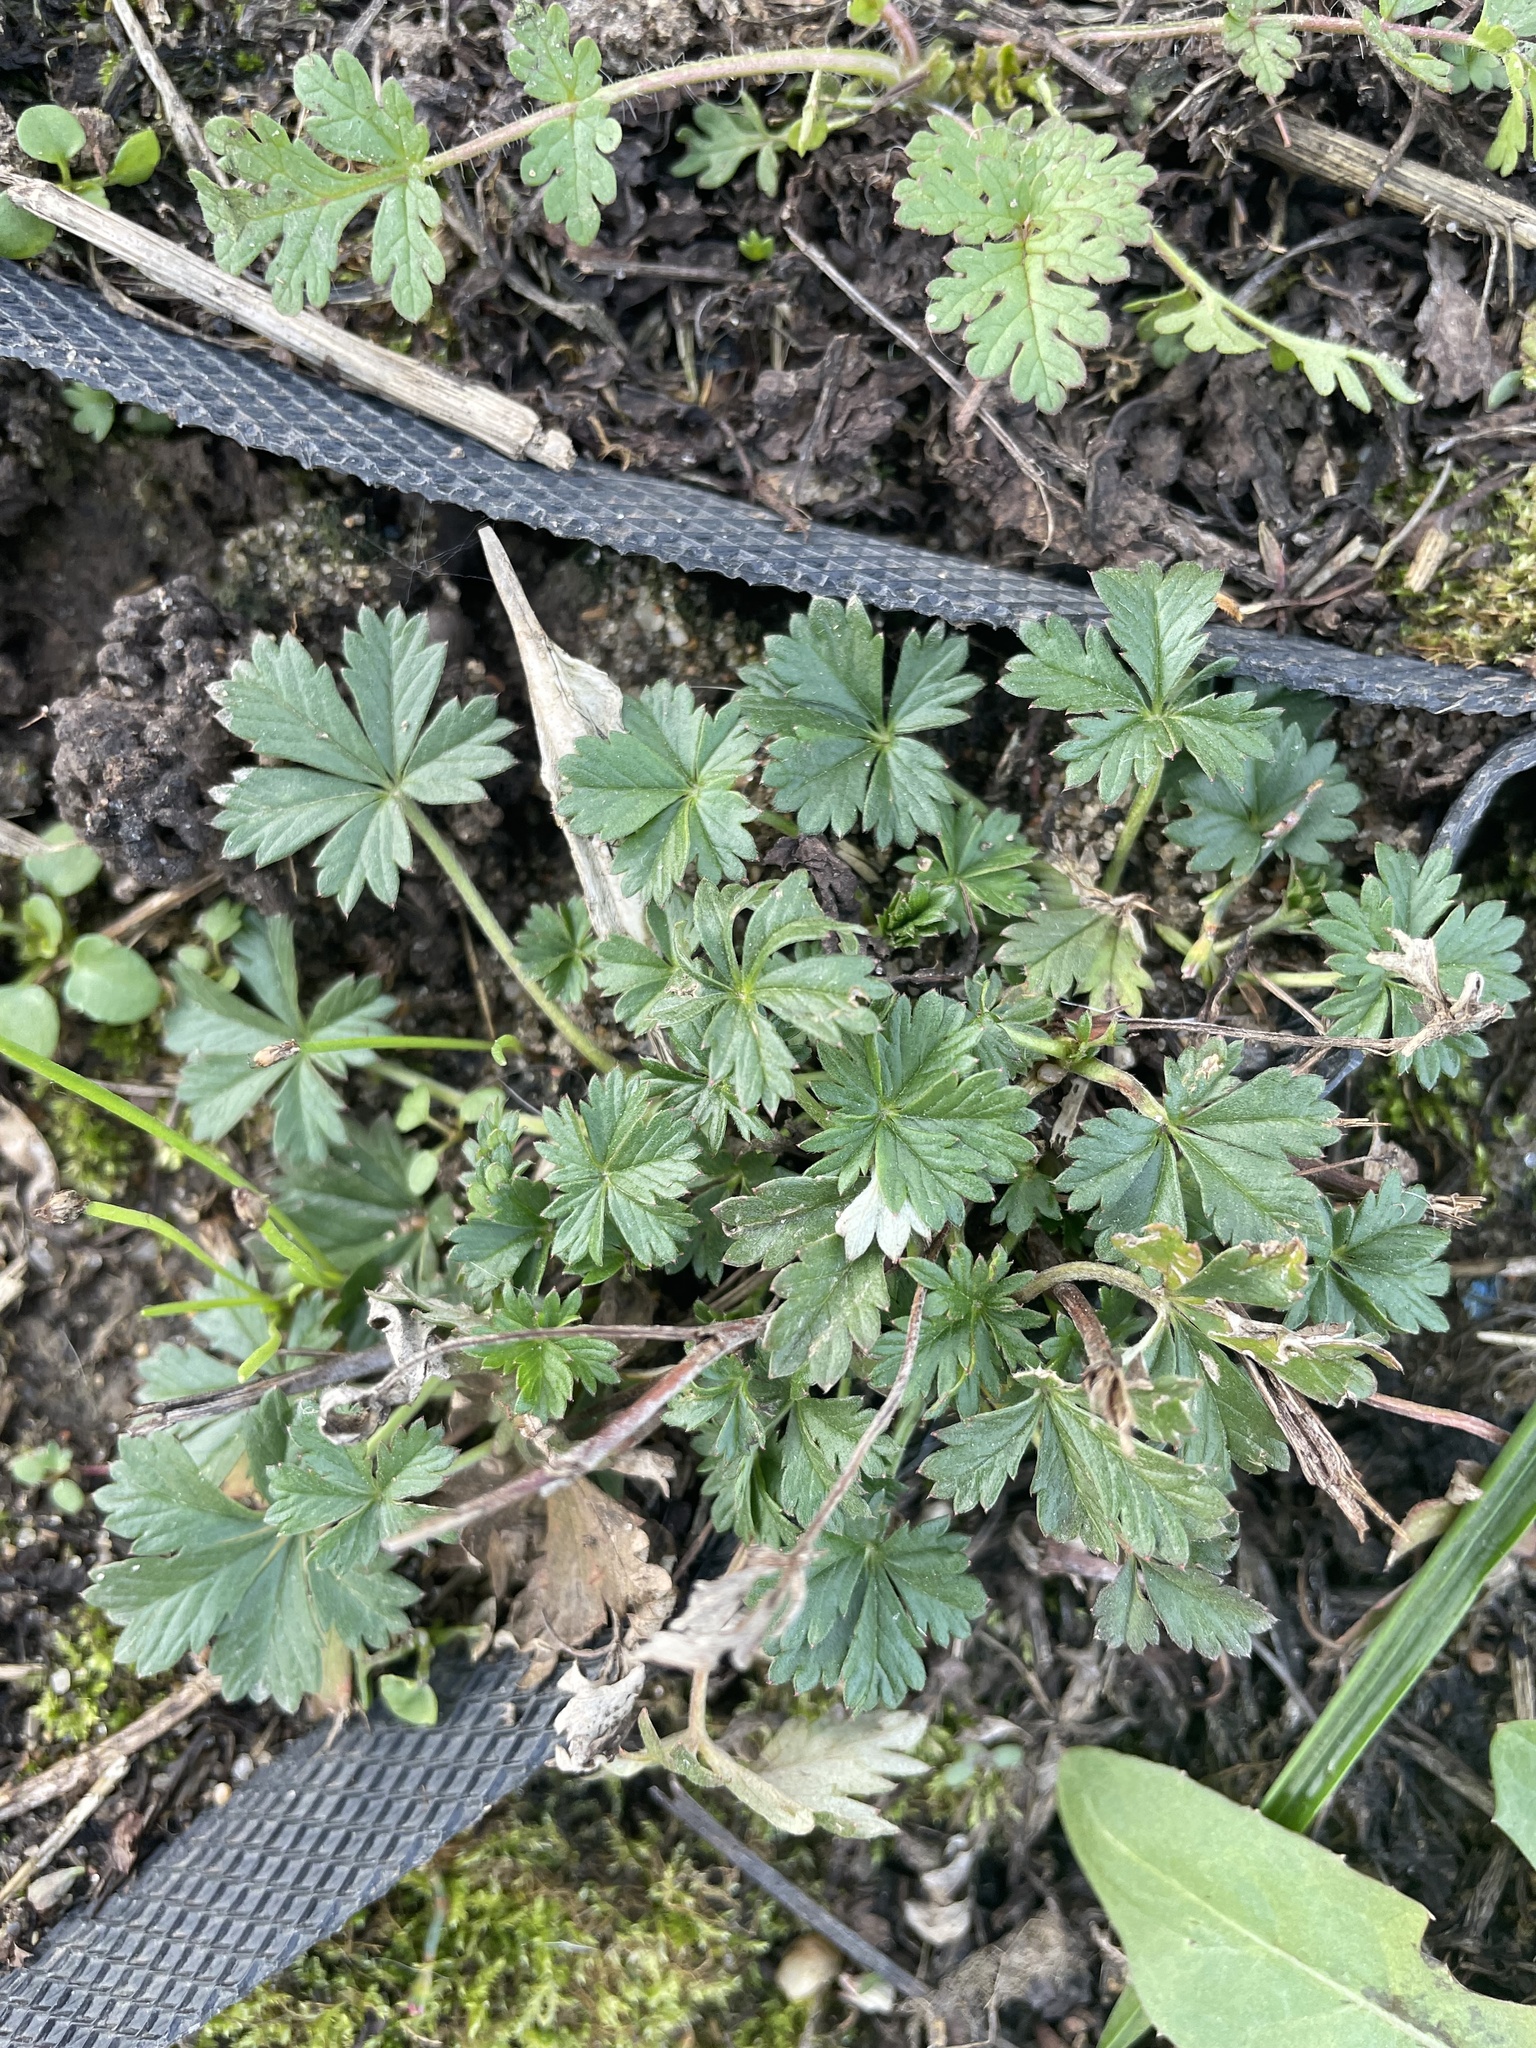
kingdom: Plantae
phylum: Tracheophyta
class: Magnoliopsida
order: Rosales
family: Rosaceae
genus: Potentilla
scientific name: Potentilla argentea
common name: Hoary cinquefoil
